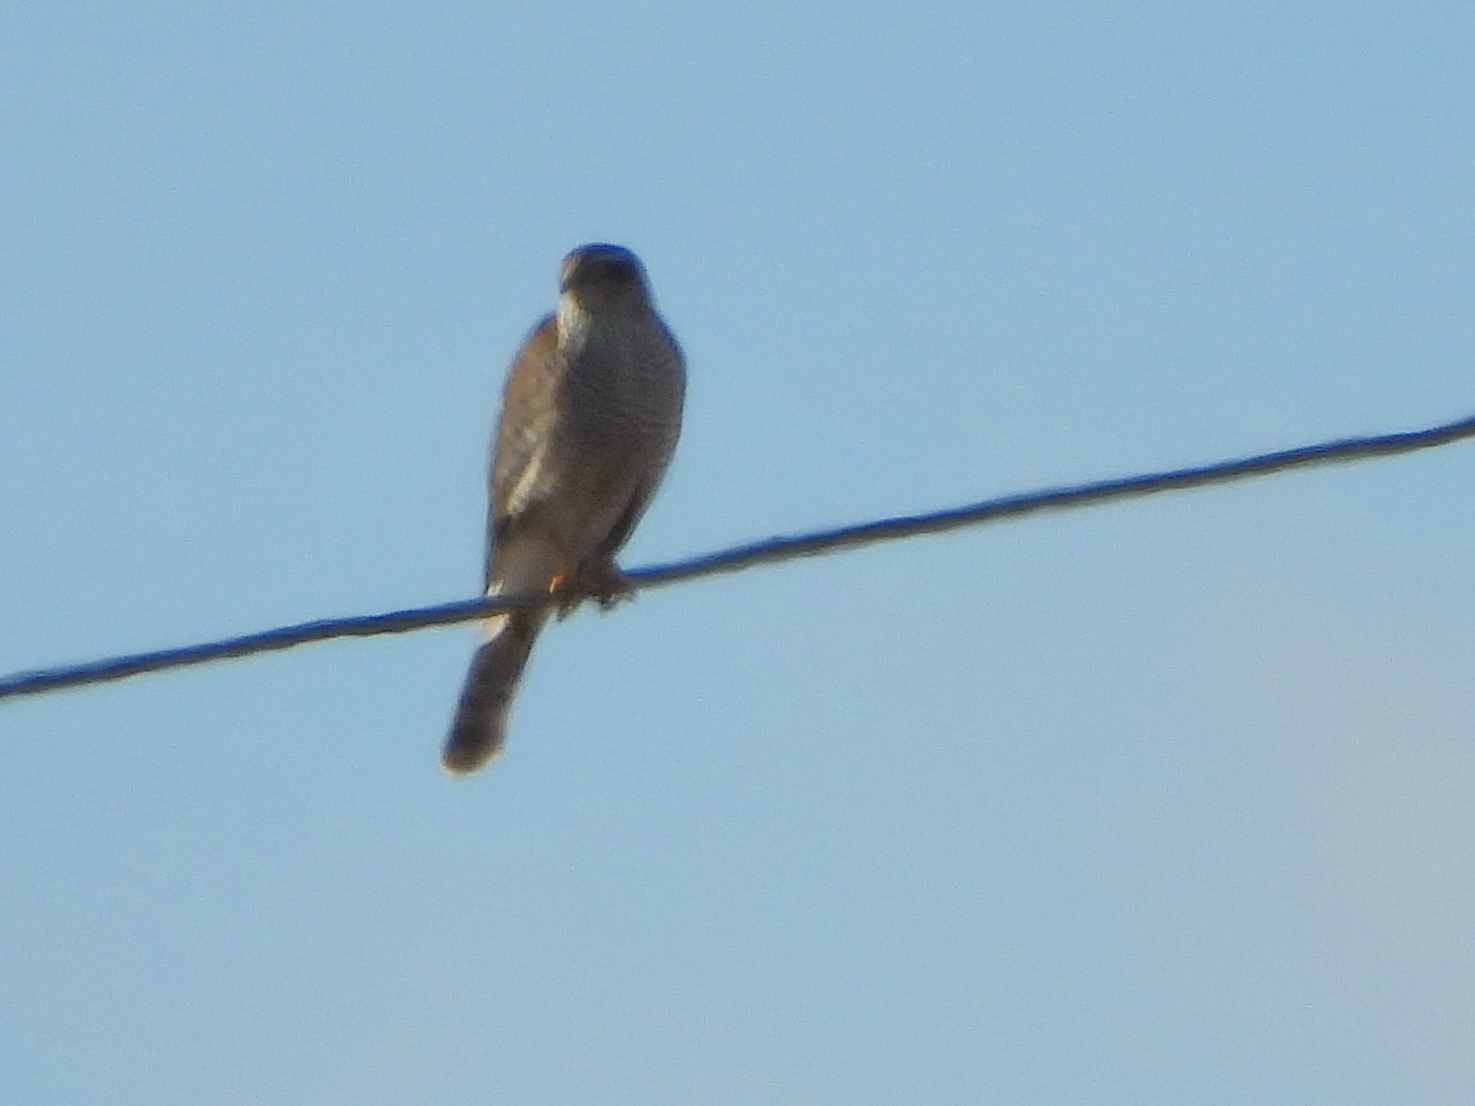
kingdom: Animalia
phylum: Chordata
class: Aves
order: Accipitriformes
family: Accipitridae
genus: Accipiter
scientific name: Accipiter nisus
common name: Eurasian sparrowhawk
